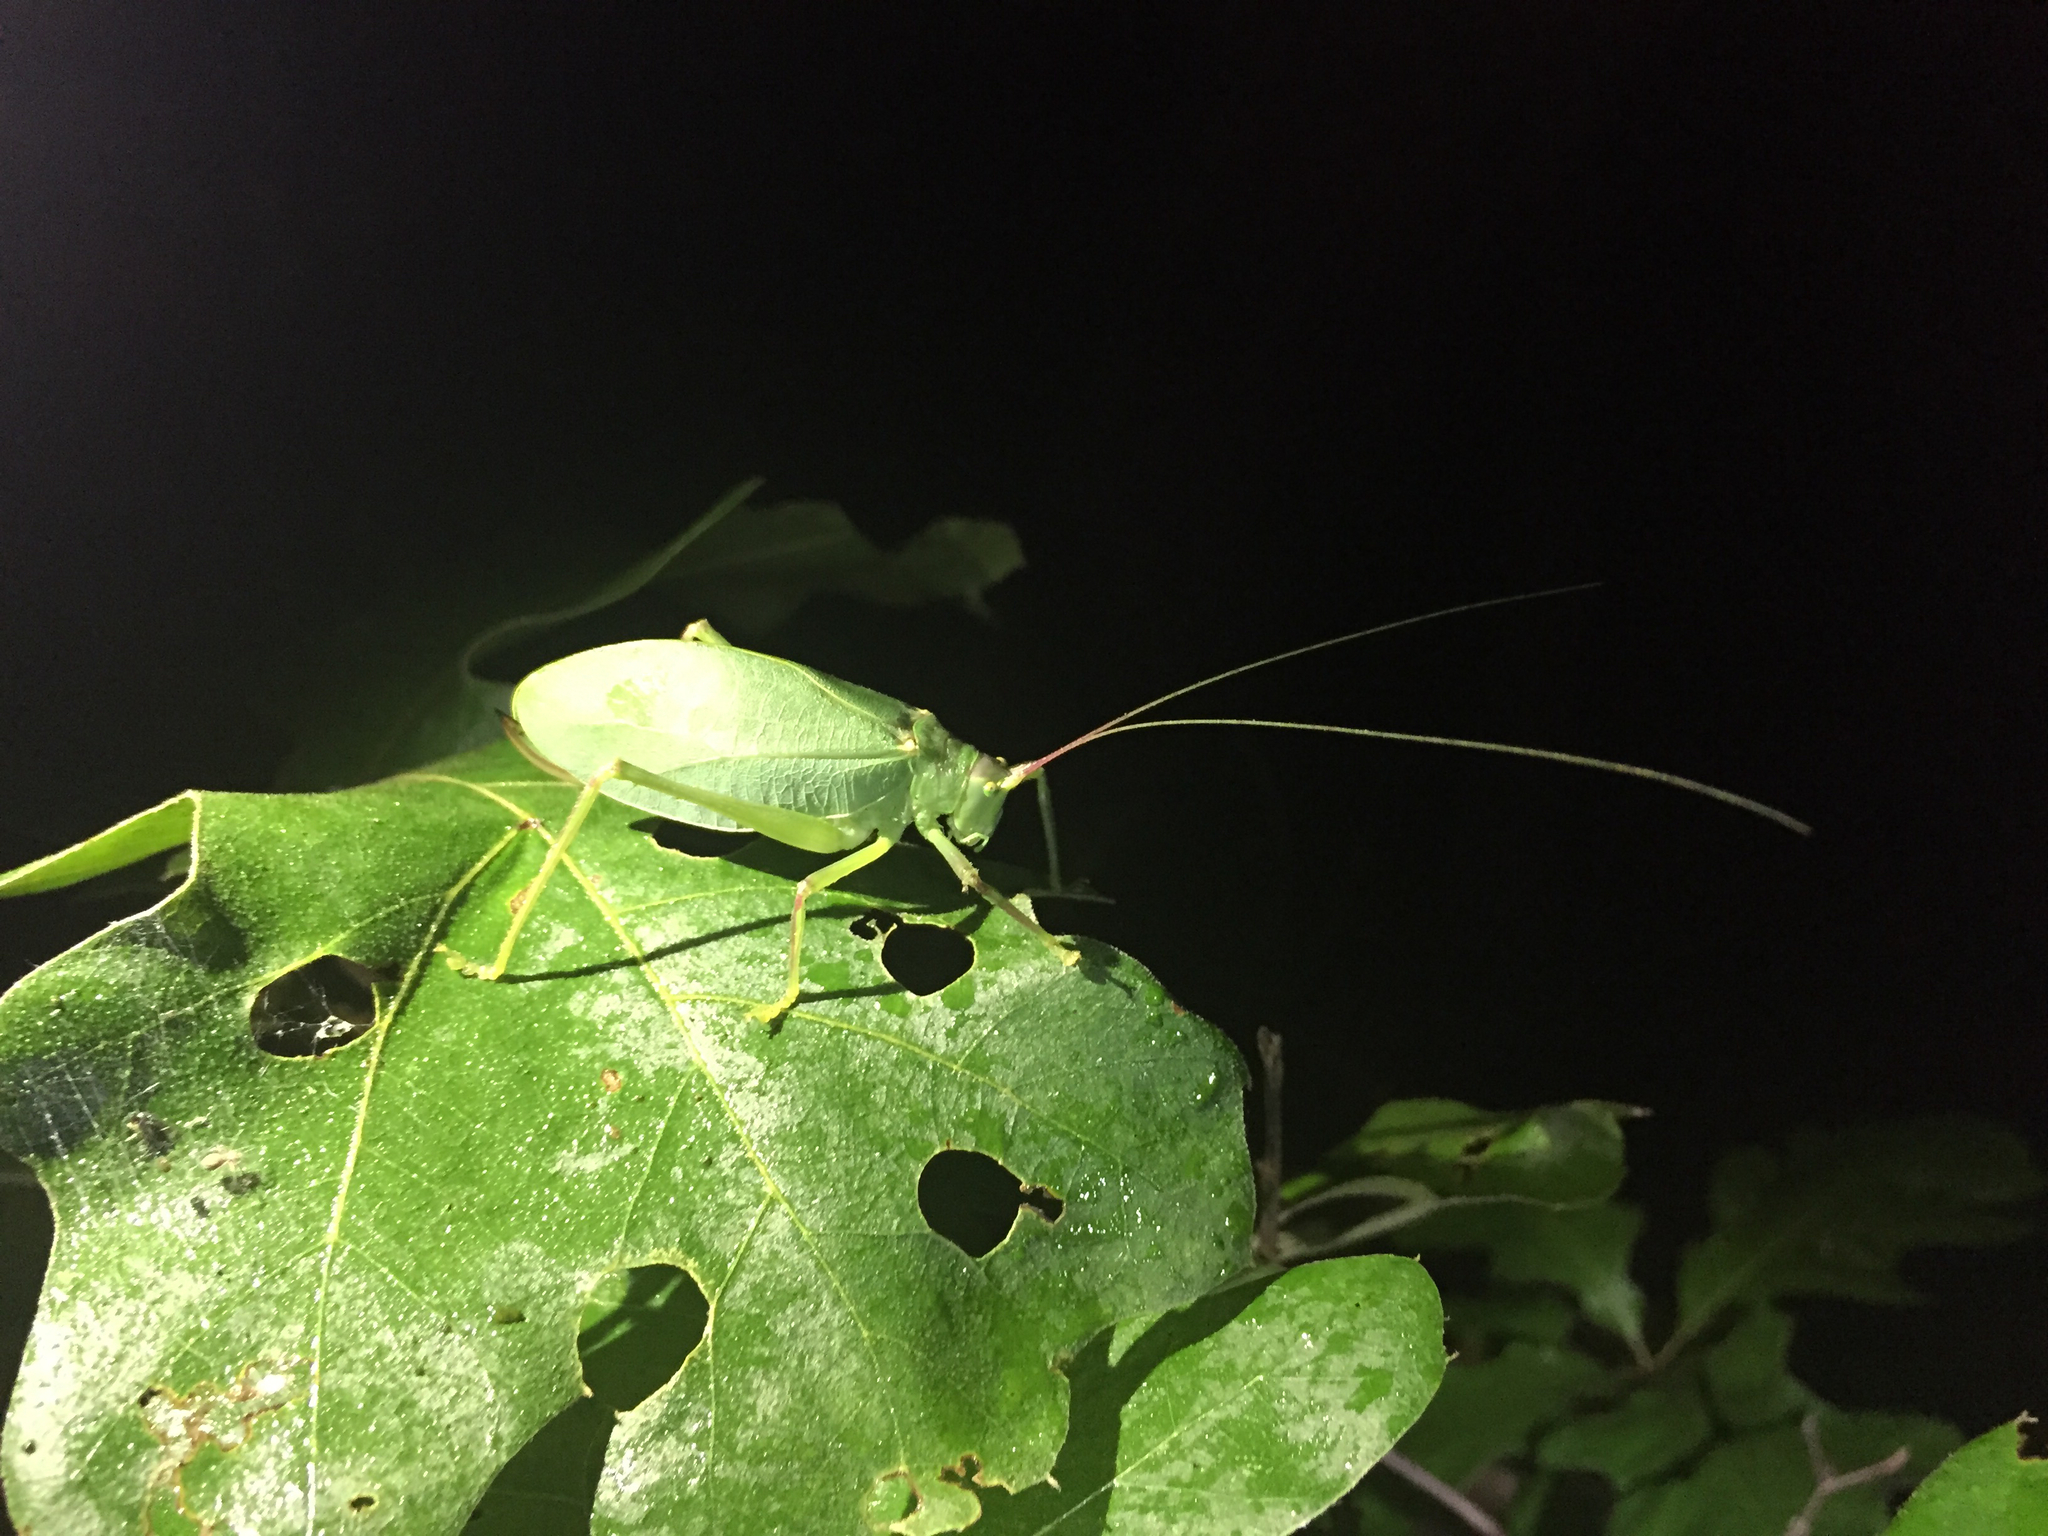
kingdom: Animalia
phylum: Arthropoda
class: Insecta
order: Orthoptera
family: Tettigoniidae
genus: Pterophylla
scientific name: Pterophylla camellifolia
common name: Common true katydid
